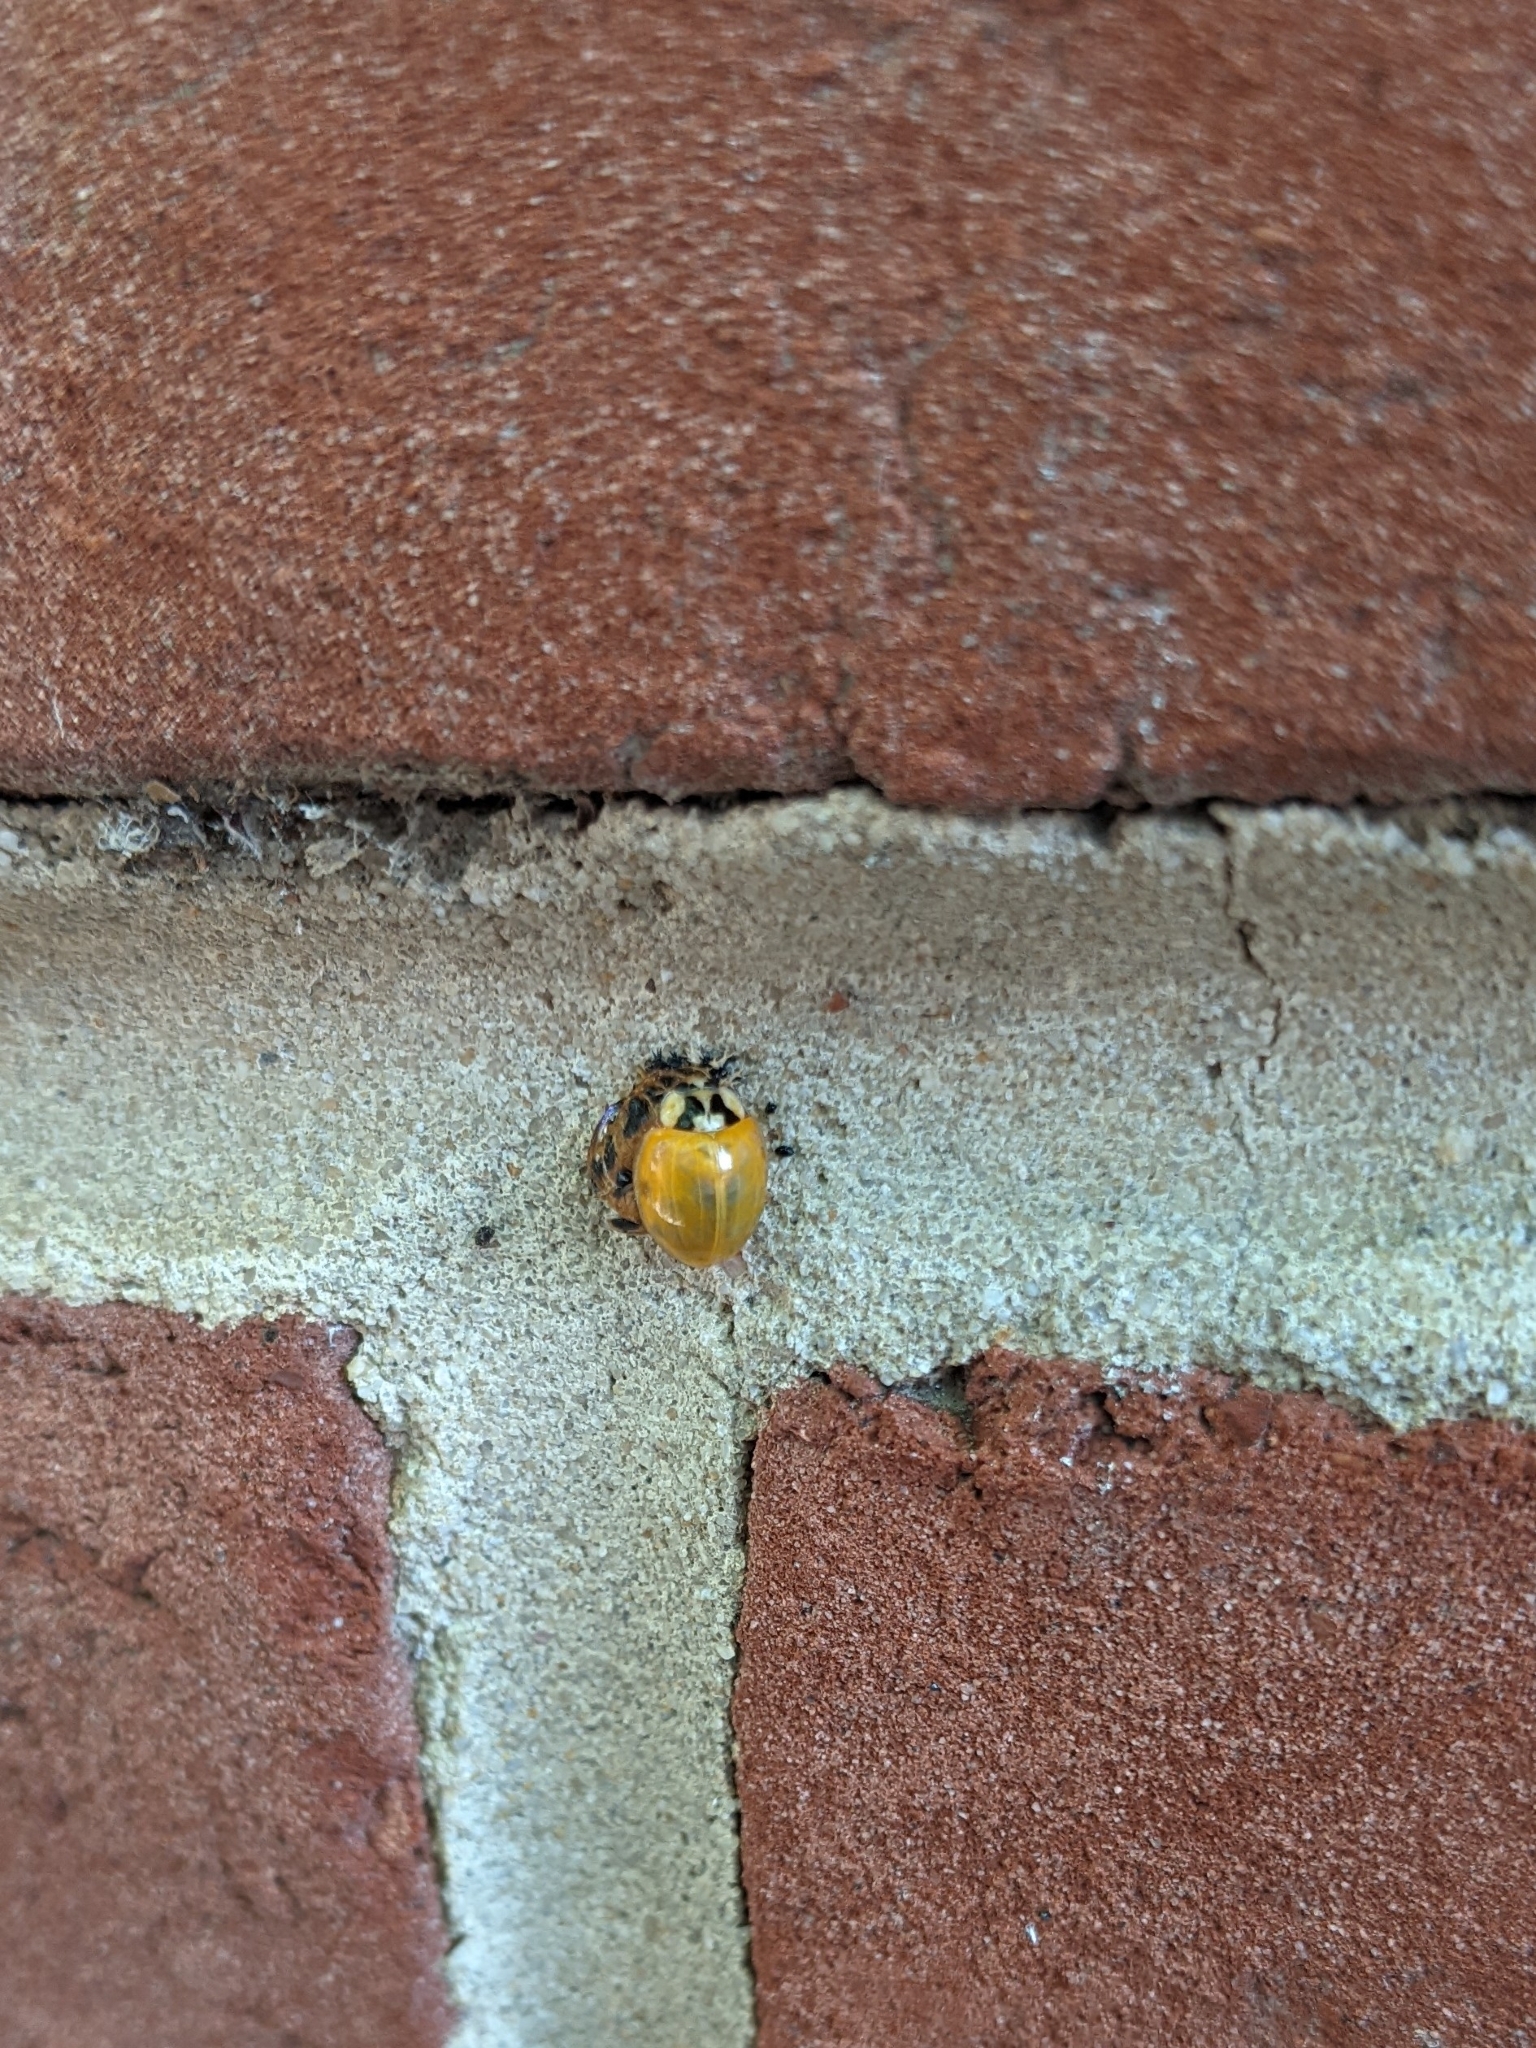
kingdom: Animalia
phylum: Arthropoda
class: Insecta
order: Coleoptera
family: Coccinellidae
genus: Harmonia
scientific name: Harmonia axyridis
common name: Harlequin ladybird
